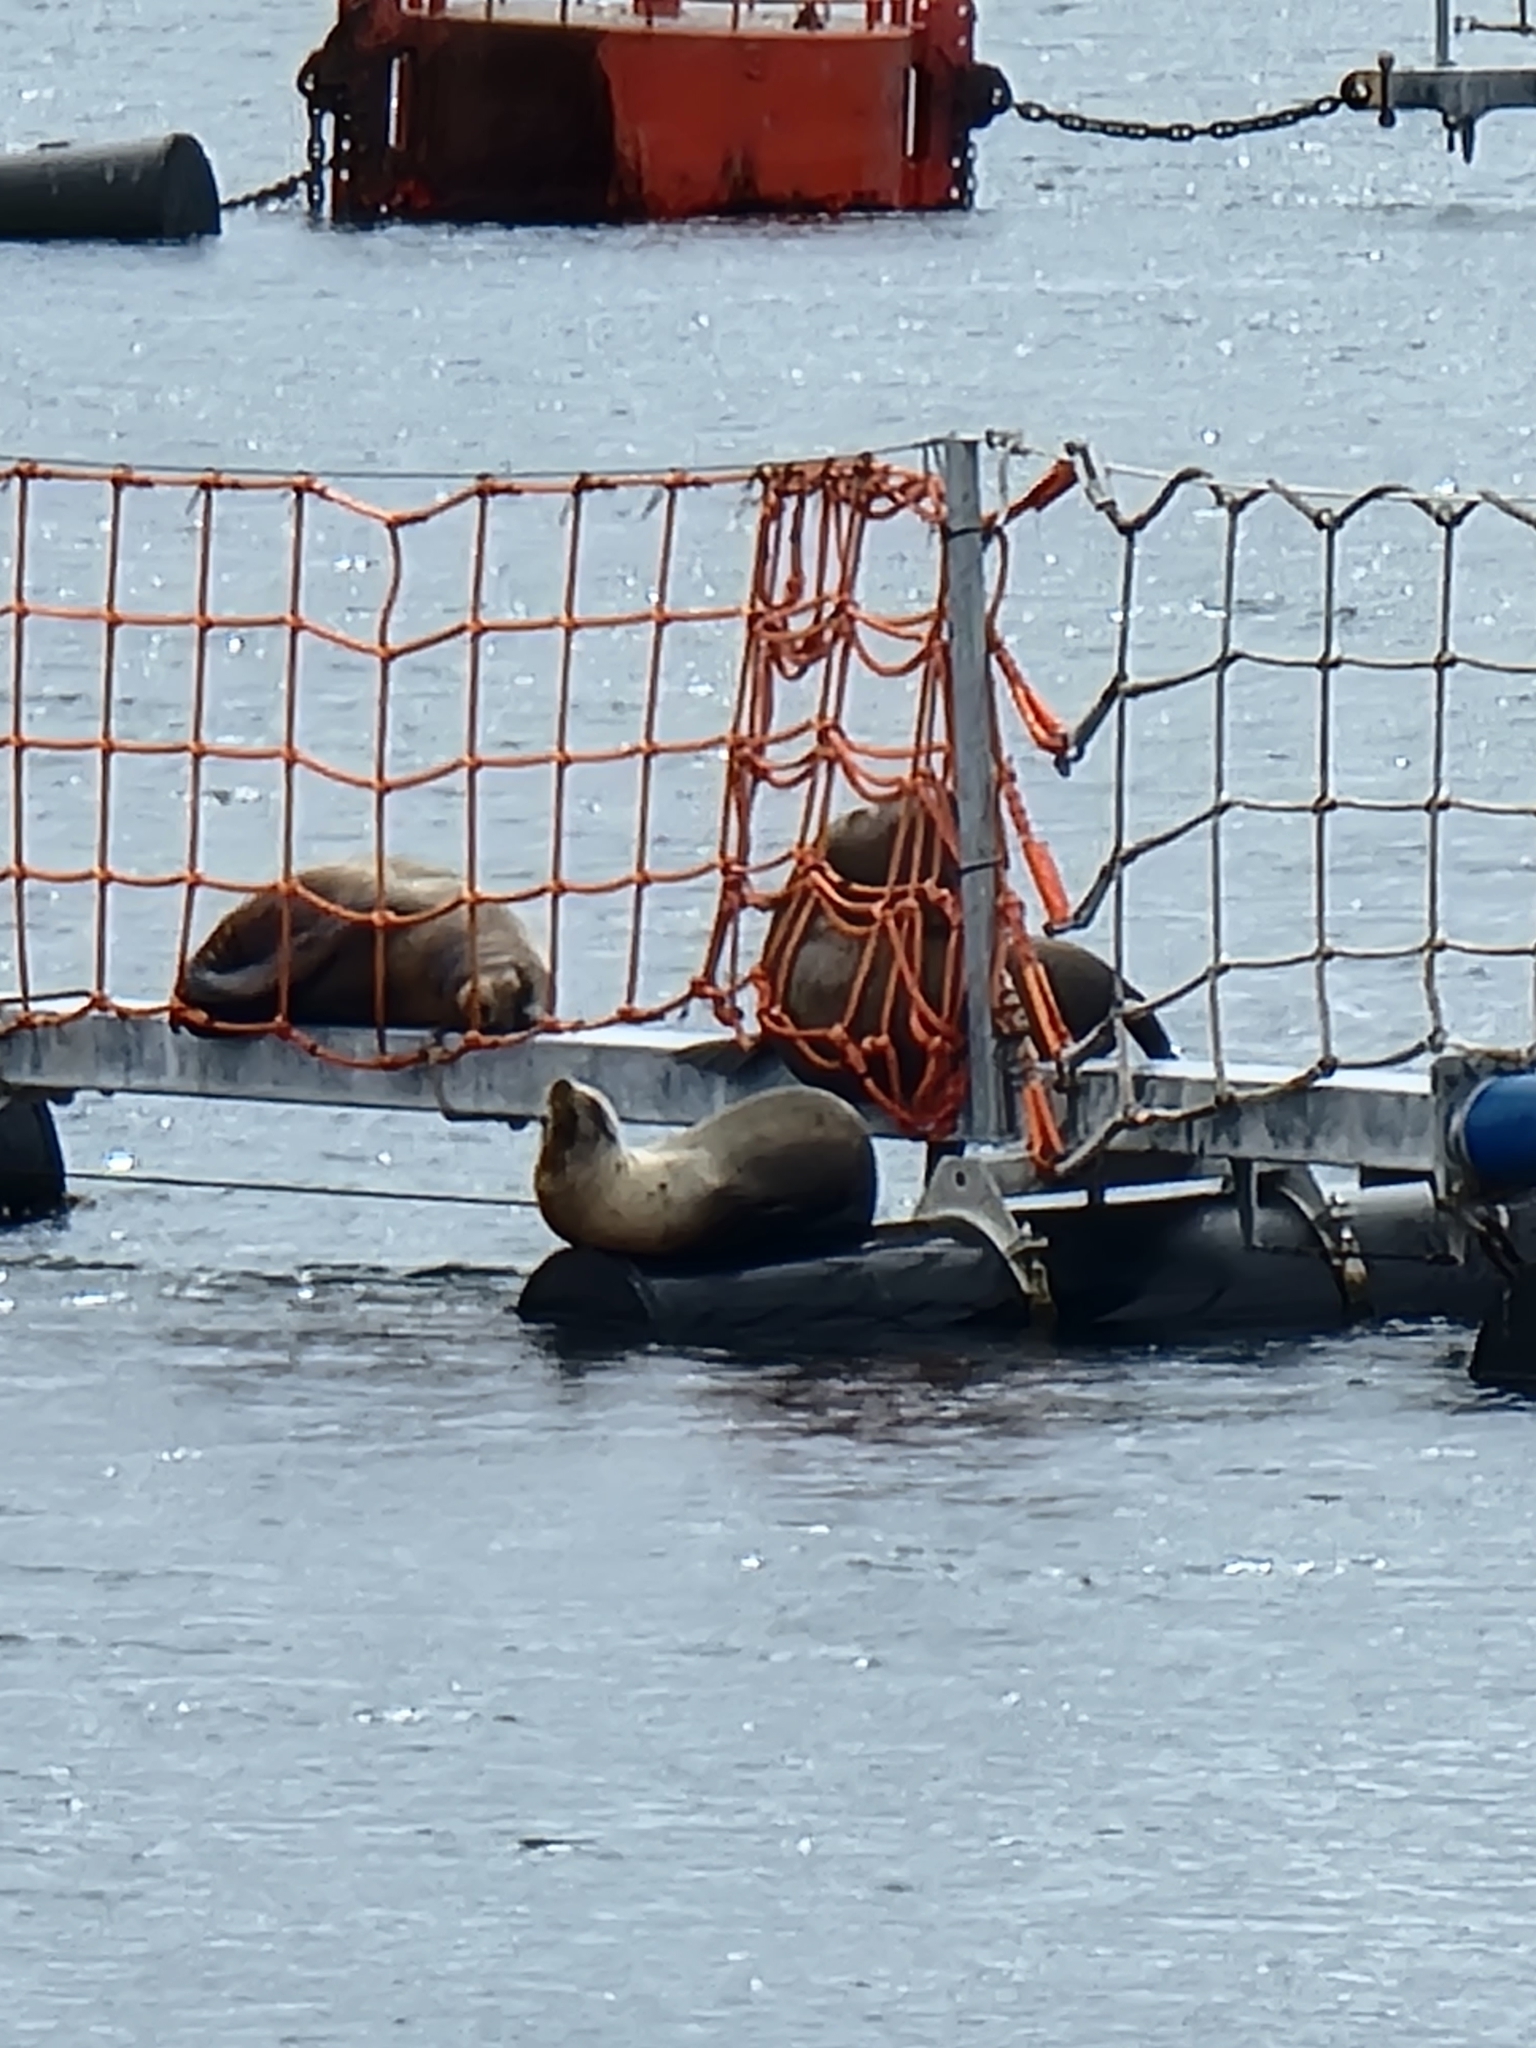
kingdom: Animalia
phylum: Chordata
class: Mammalia
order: Carnivora
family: Otariidae
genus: Zalophus
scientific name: Zalophus californianus
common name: California sea lion
